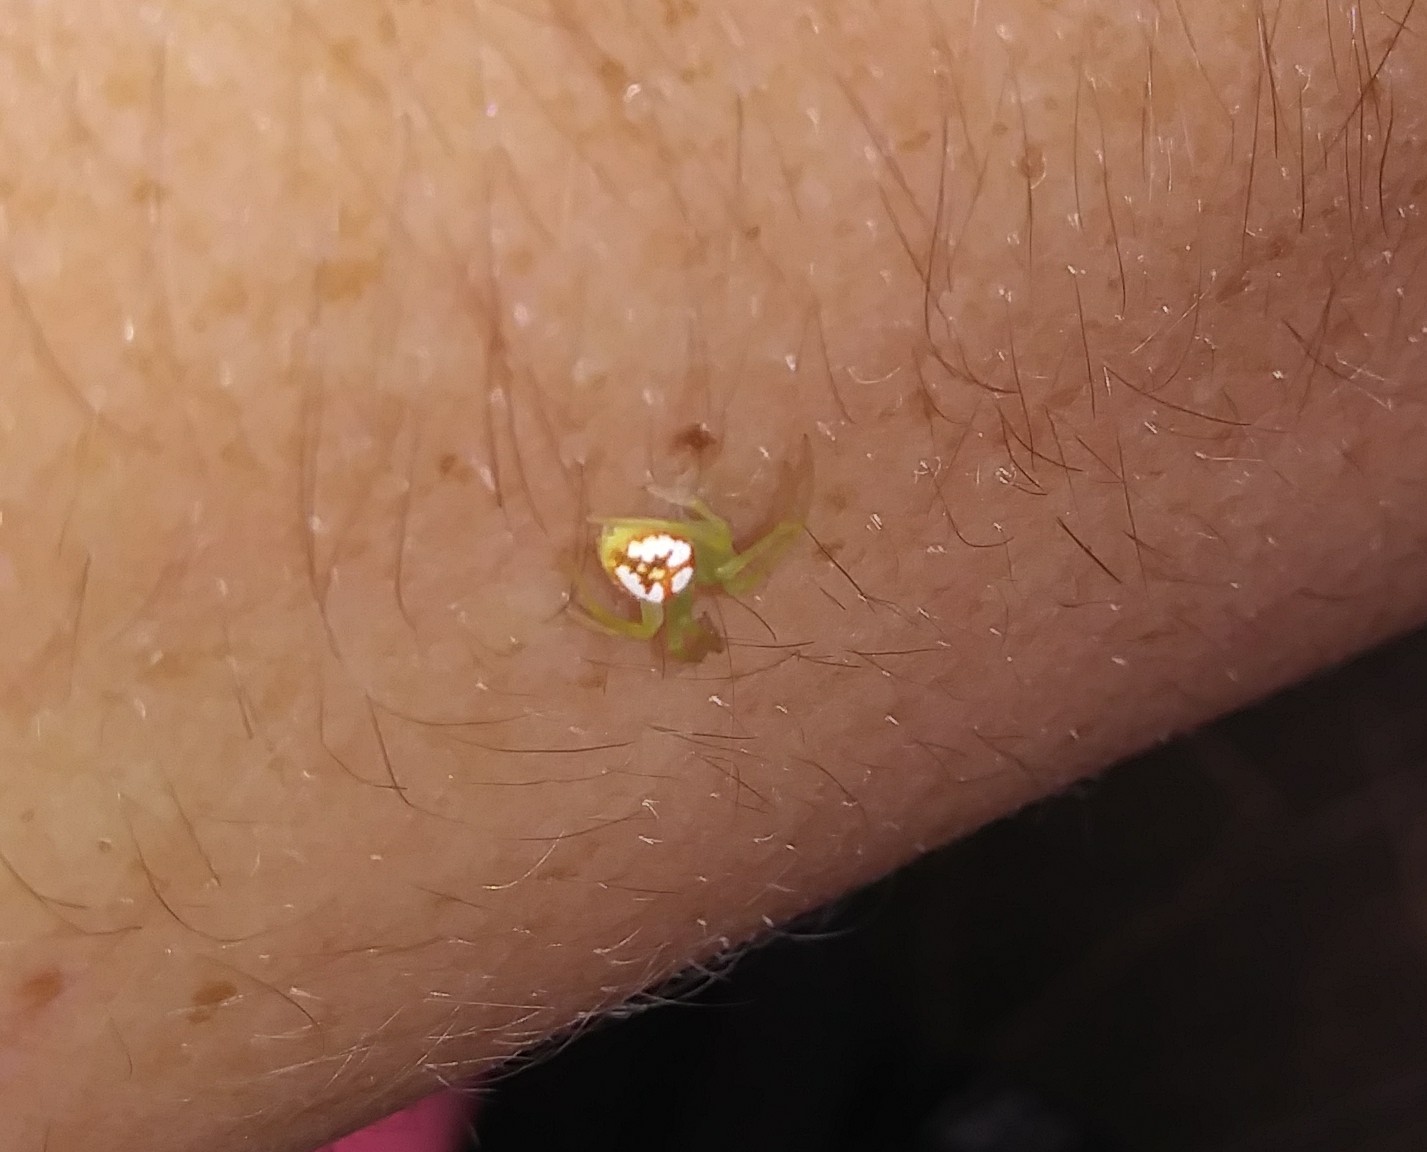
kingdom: Animalia
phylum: Arthropoda
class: Arachnida
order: Araneae
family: Araneidae
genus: Araneus
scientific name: Araneus guttulatus
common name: Red-backed orbweaver
